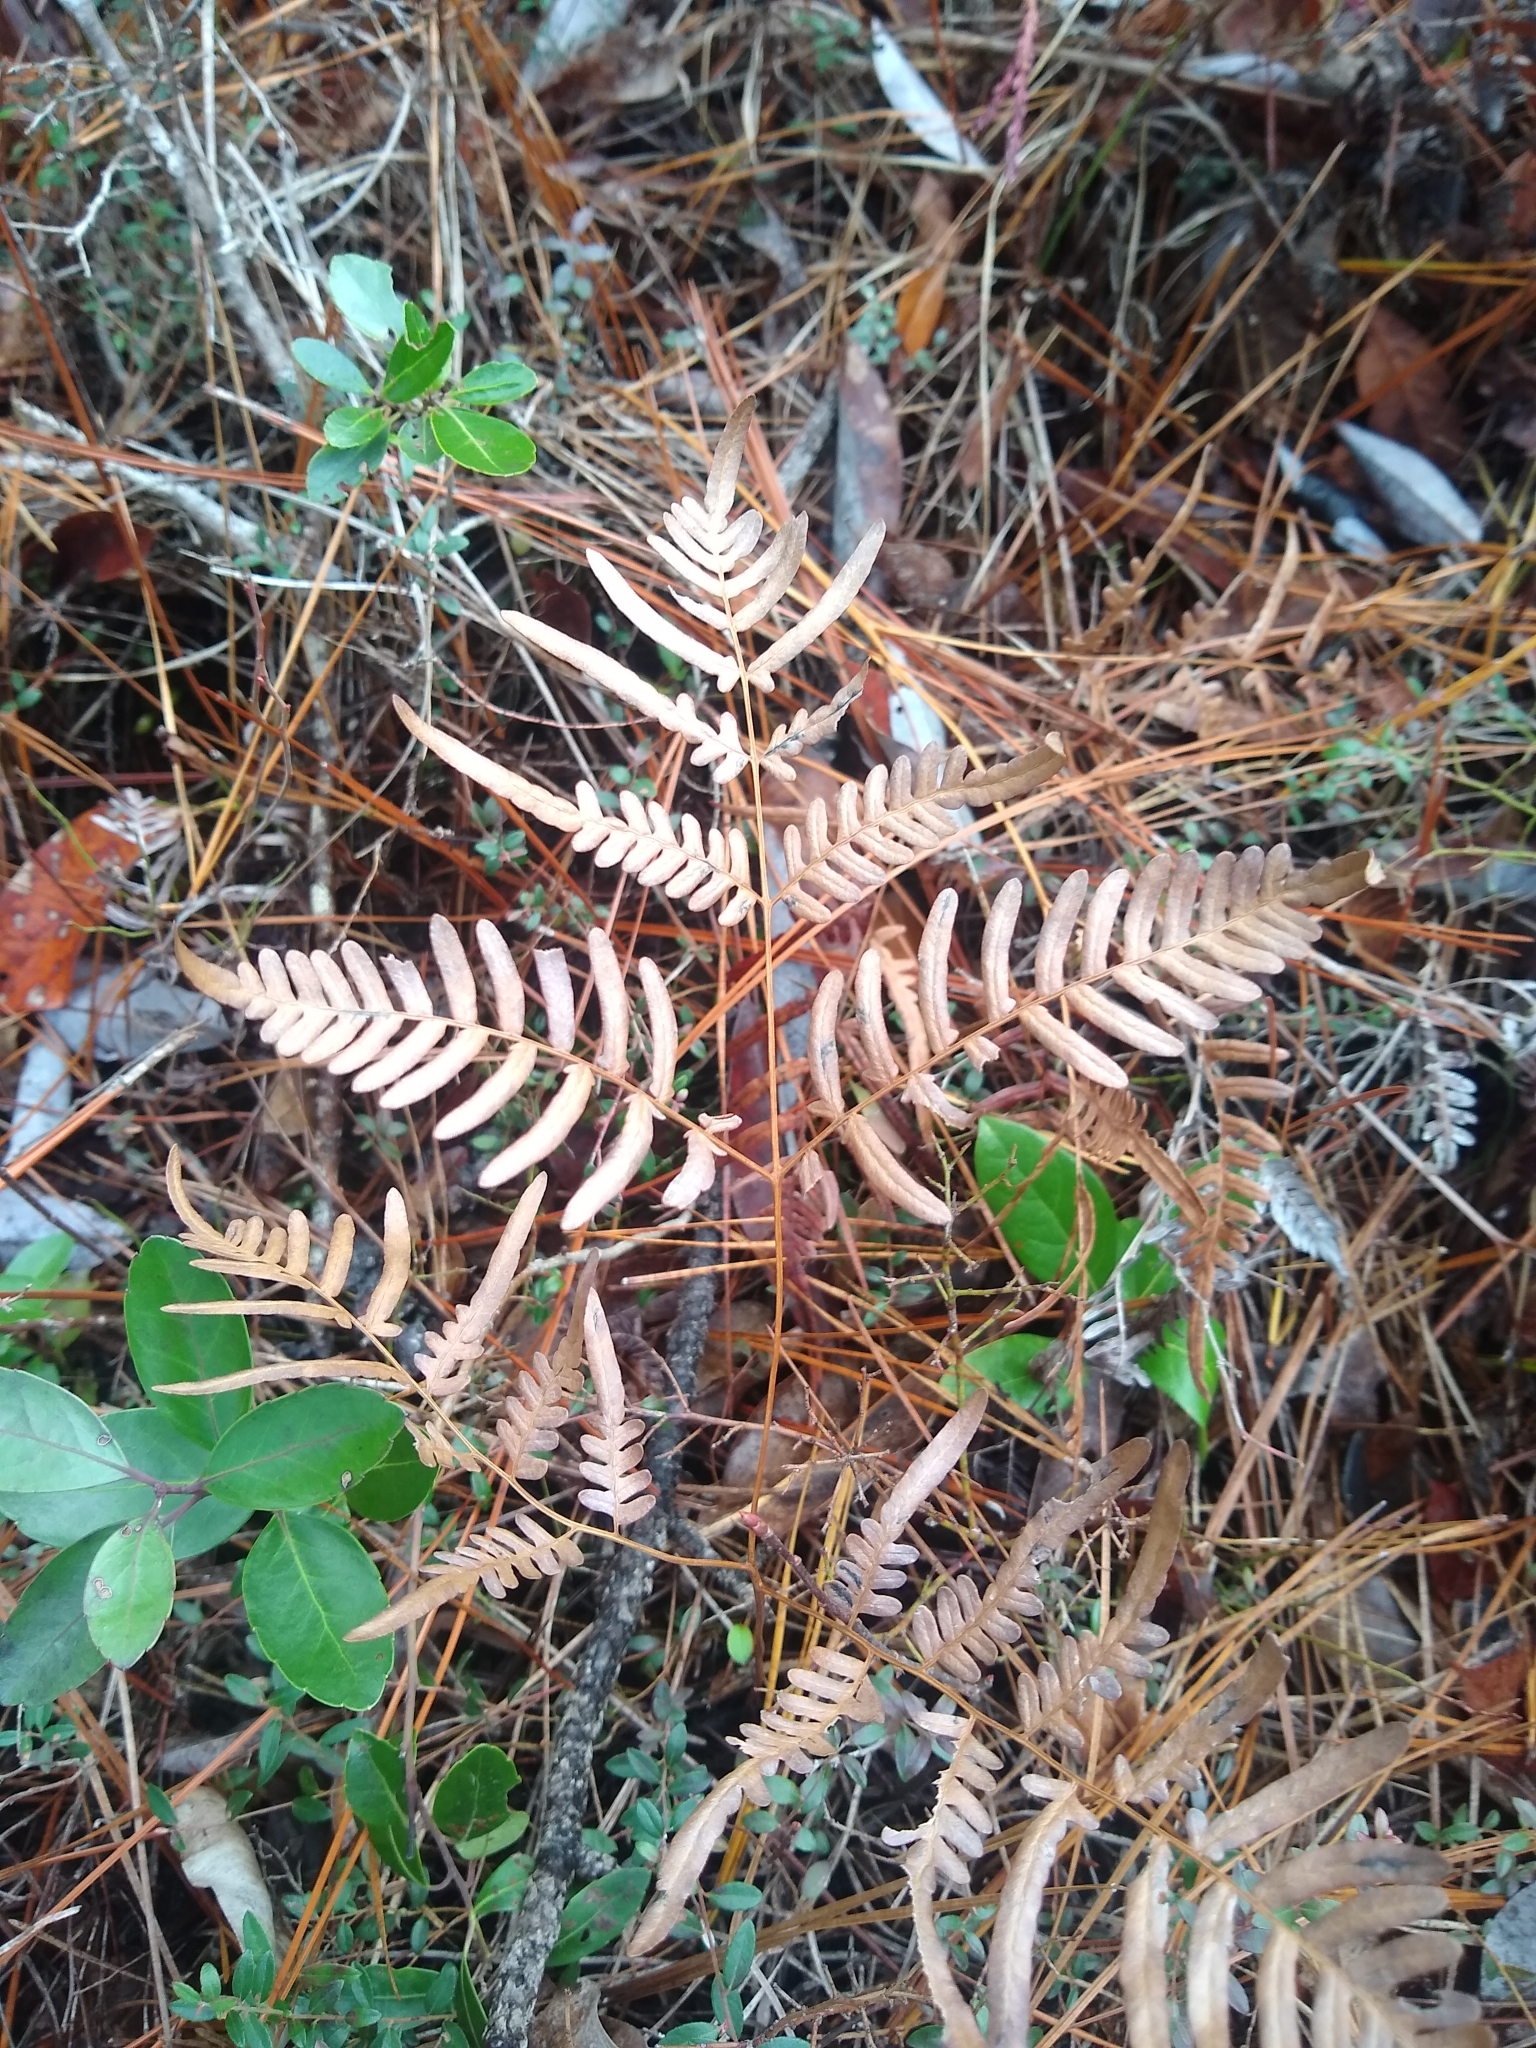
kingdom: Plantae
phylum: Tracheophyta
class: Polypodiopsida
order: Polypodiales
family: Dennstaedtiaceae
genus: Pteridium
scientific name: Pteridium
